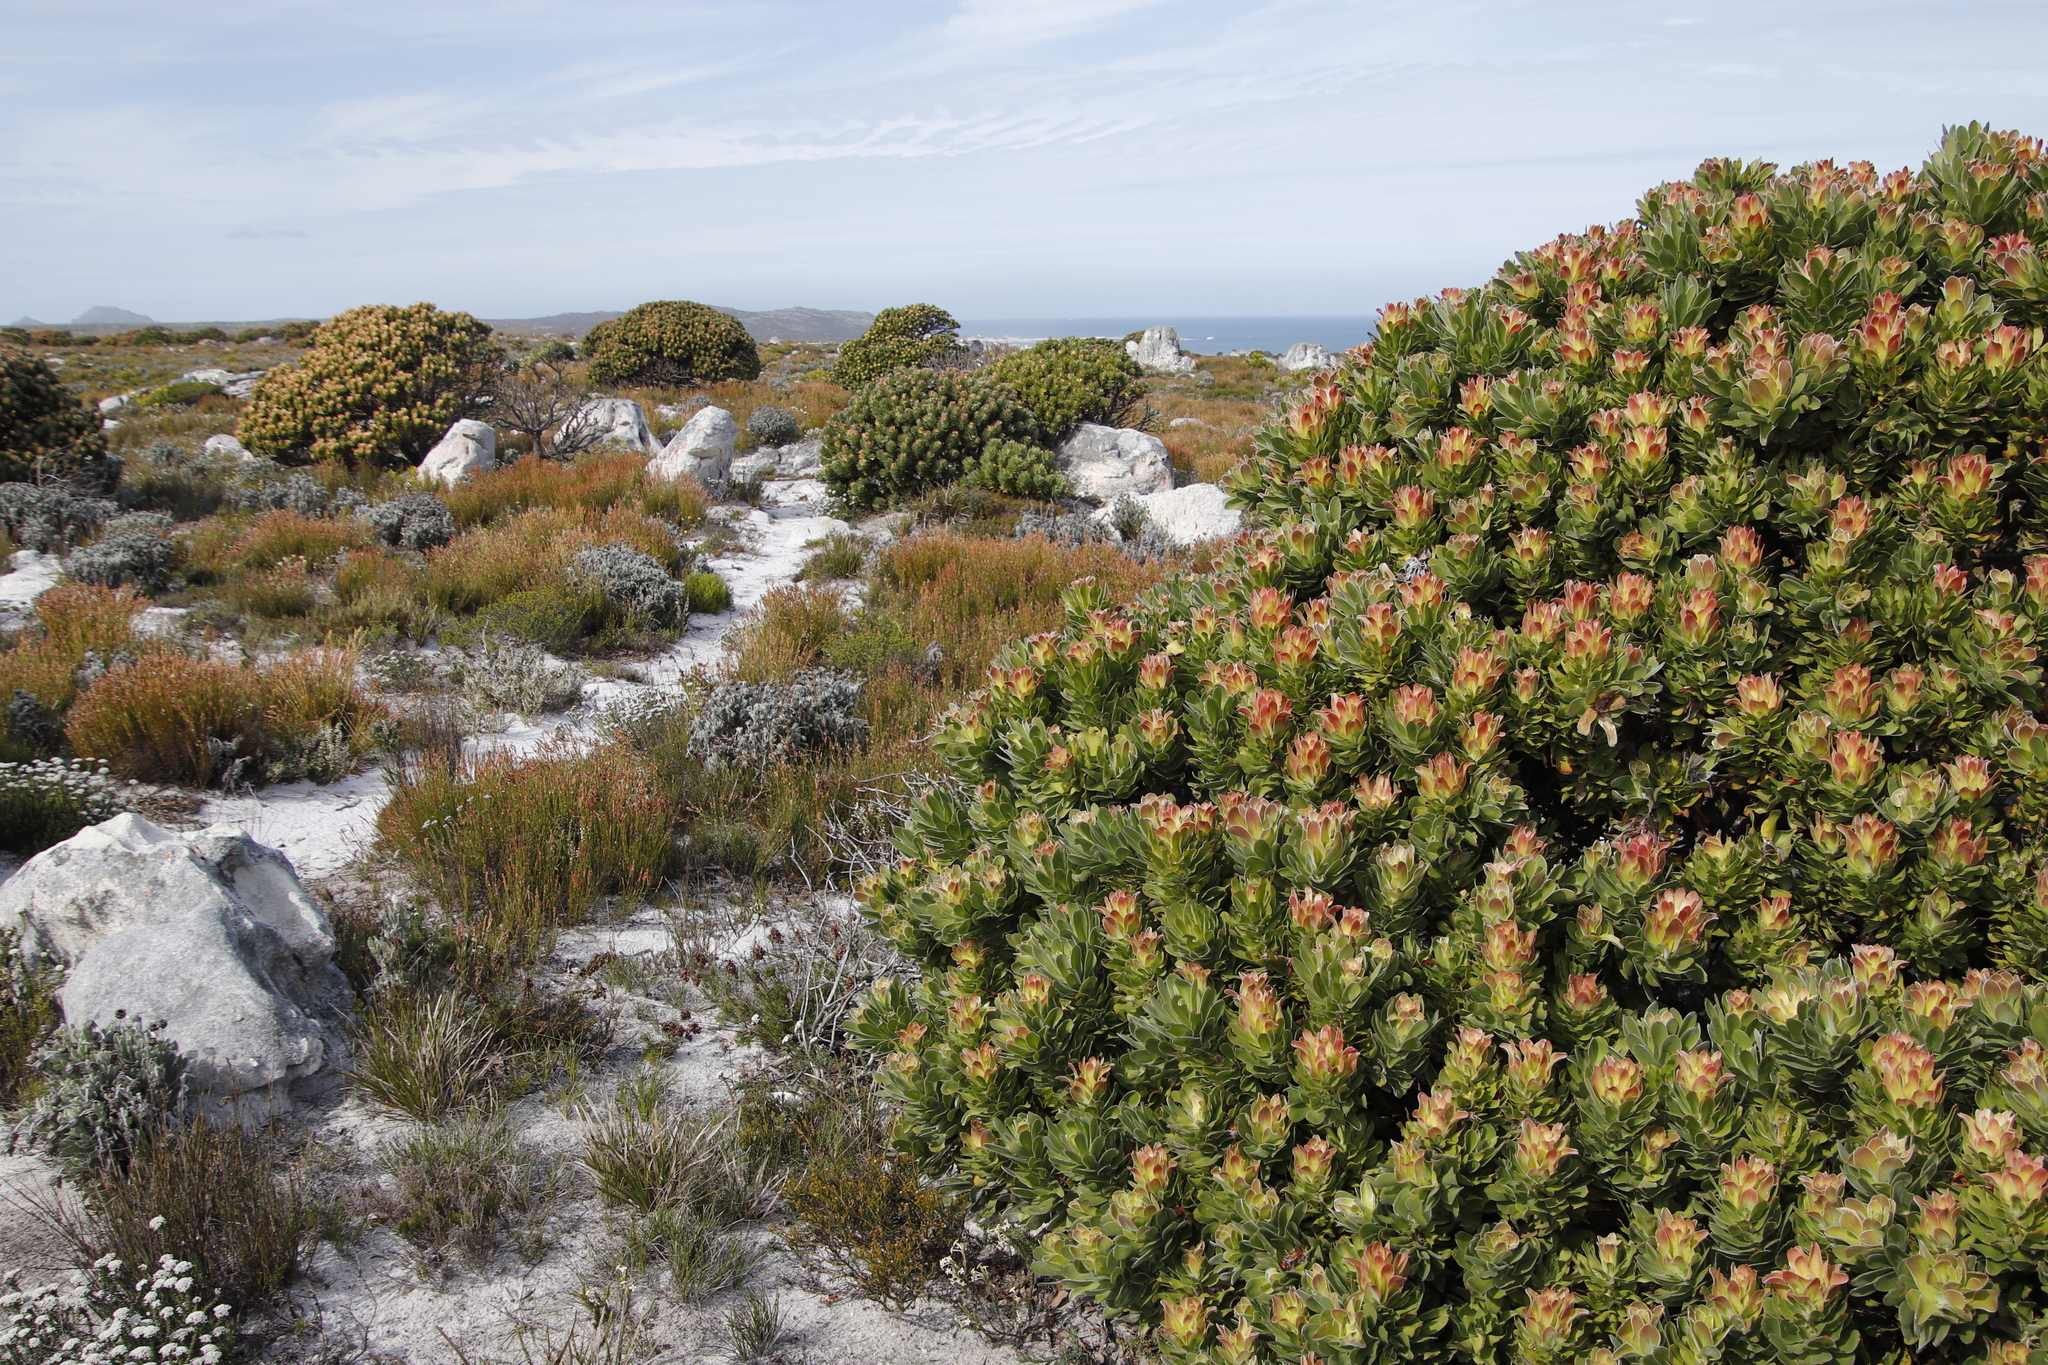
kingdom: Plantae
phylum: Tracheophyta
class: Magnoliopsida
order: Proteales
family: Proteaceae
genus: Mimetes
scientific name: Mimetes fimbriifolius
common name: Fringed bottlebrush
